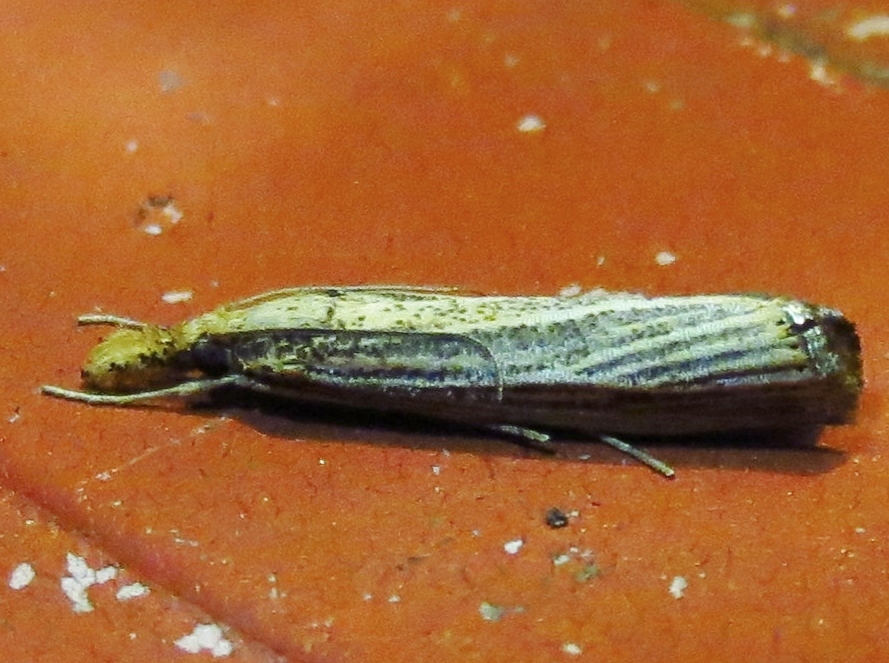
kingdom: Animalia
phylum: Arthropoda
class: Insecta
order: Lepidoptera
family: Crambidae
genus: Agriphila
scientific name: Agriphila vulgivagellus
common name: Vagabond crambus moth
